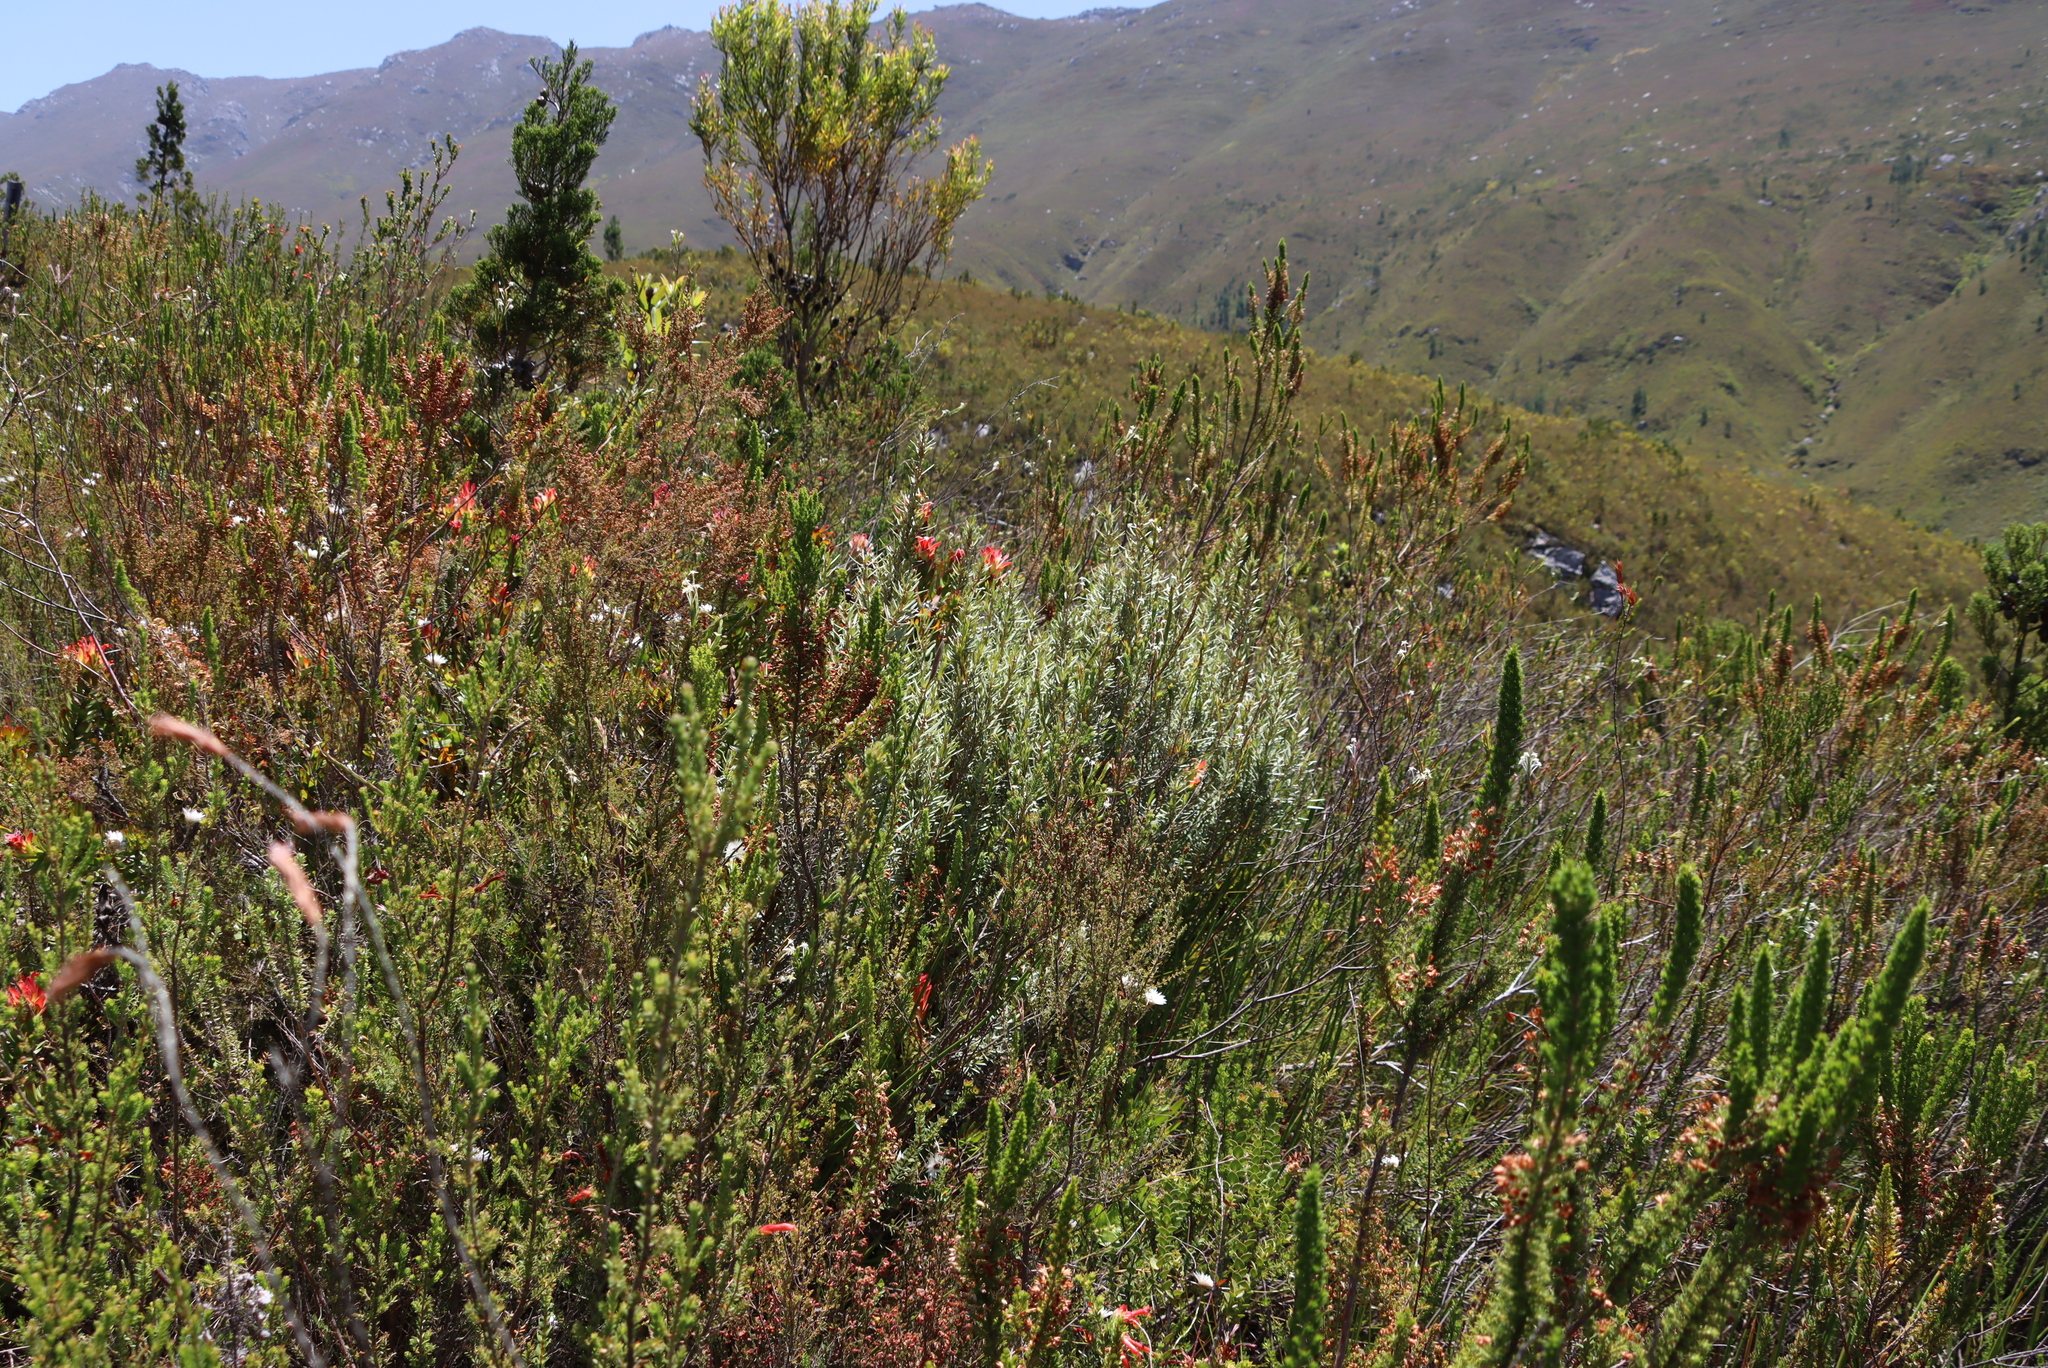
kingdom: Plantae
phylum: Tracheophyta
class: Magnoliopsida
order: Cornales
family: Grubbiaceae
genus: Grubbia
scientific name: Grubbia tomentosa
